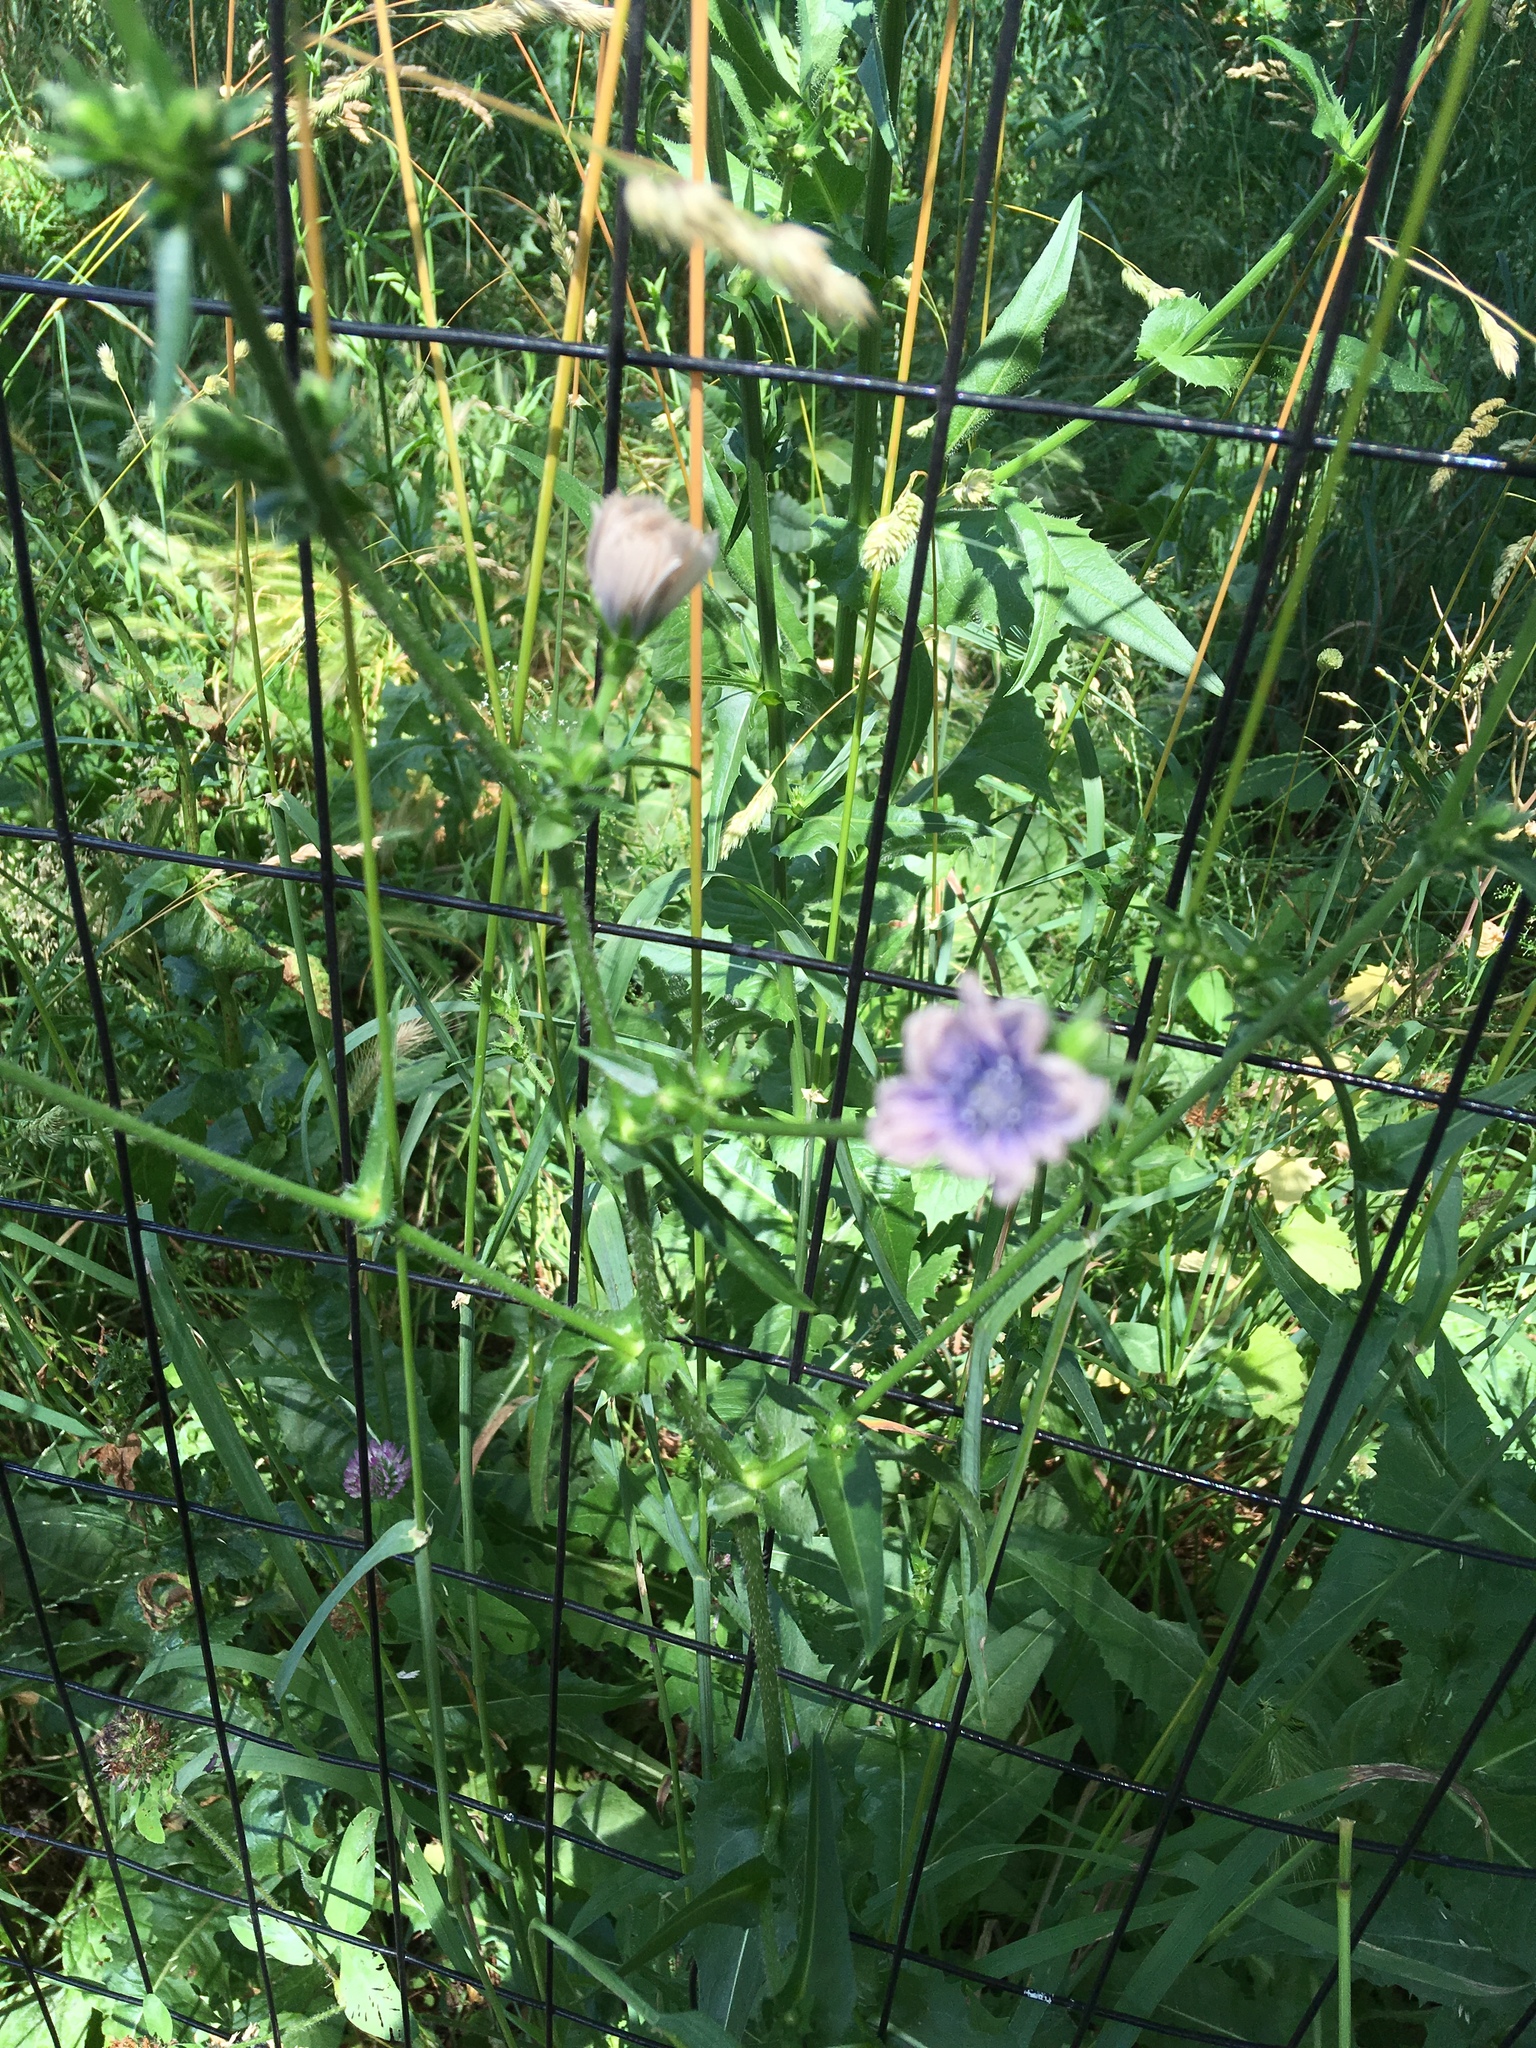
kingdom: Plantae
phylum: Tracheophyta
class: Magnoliopsida
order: Asterales
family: Asteraceae
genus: Cichorium
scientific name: Cichorium intybus
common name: Chicory
